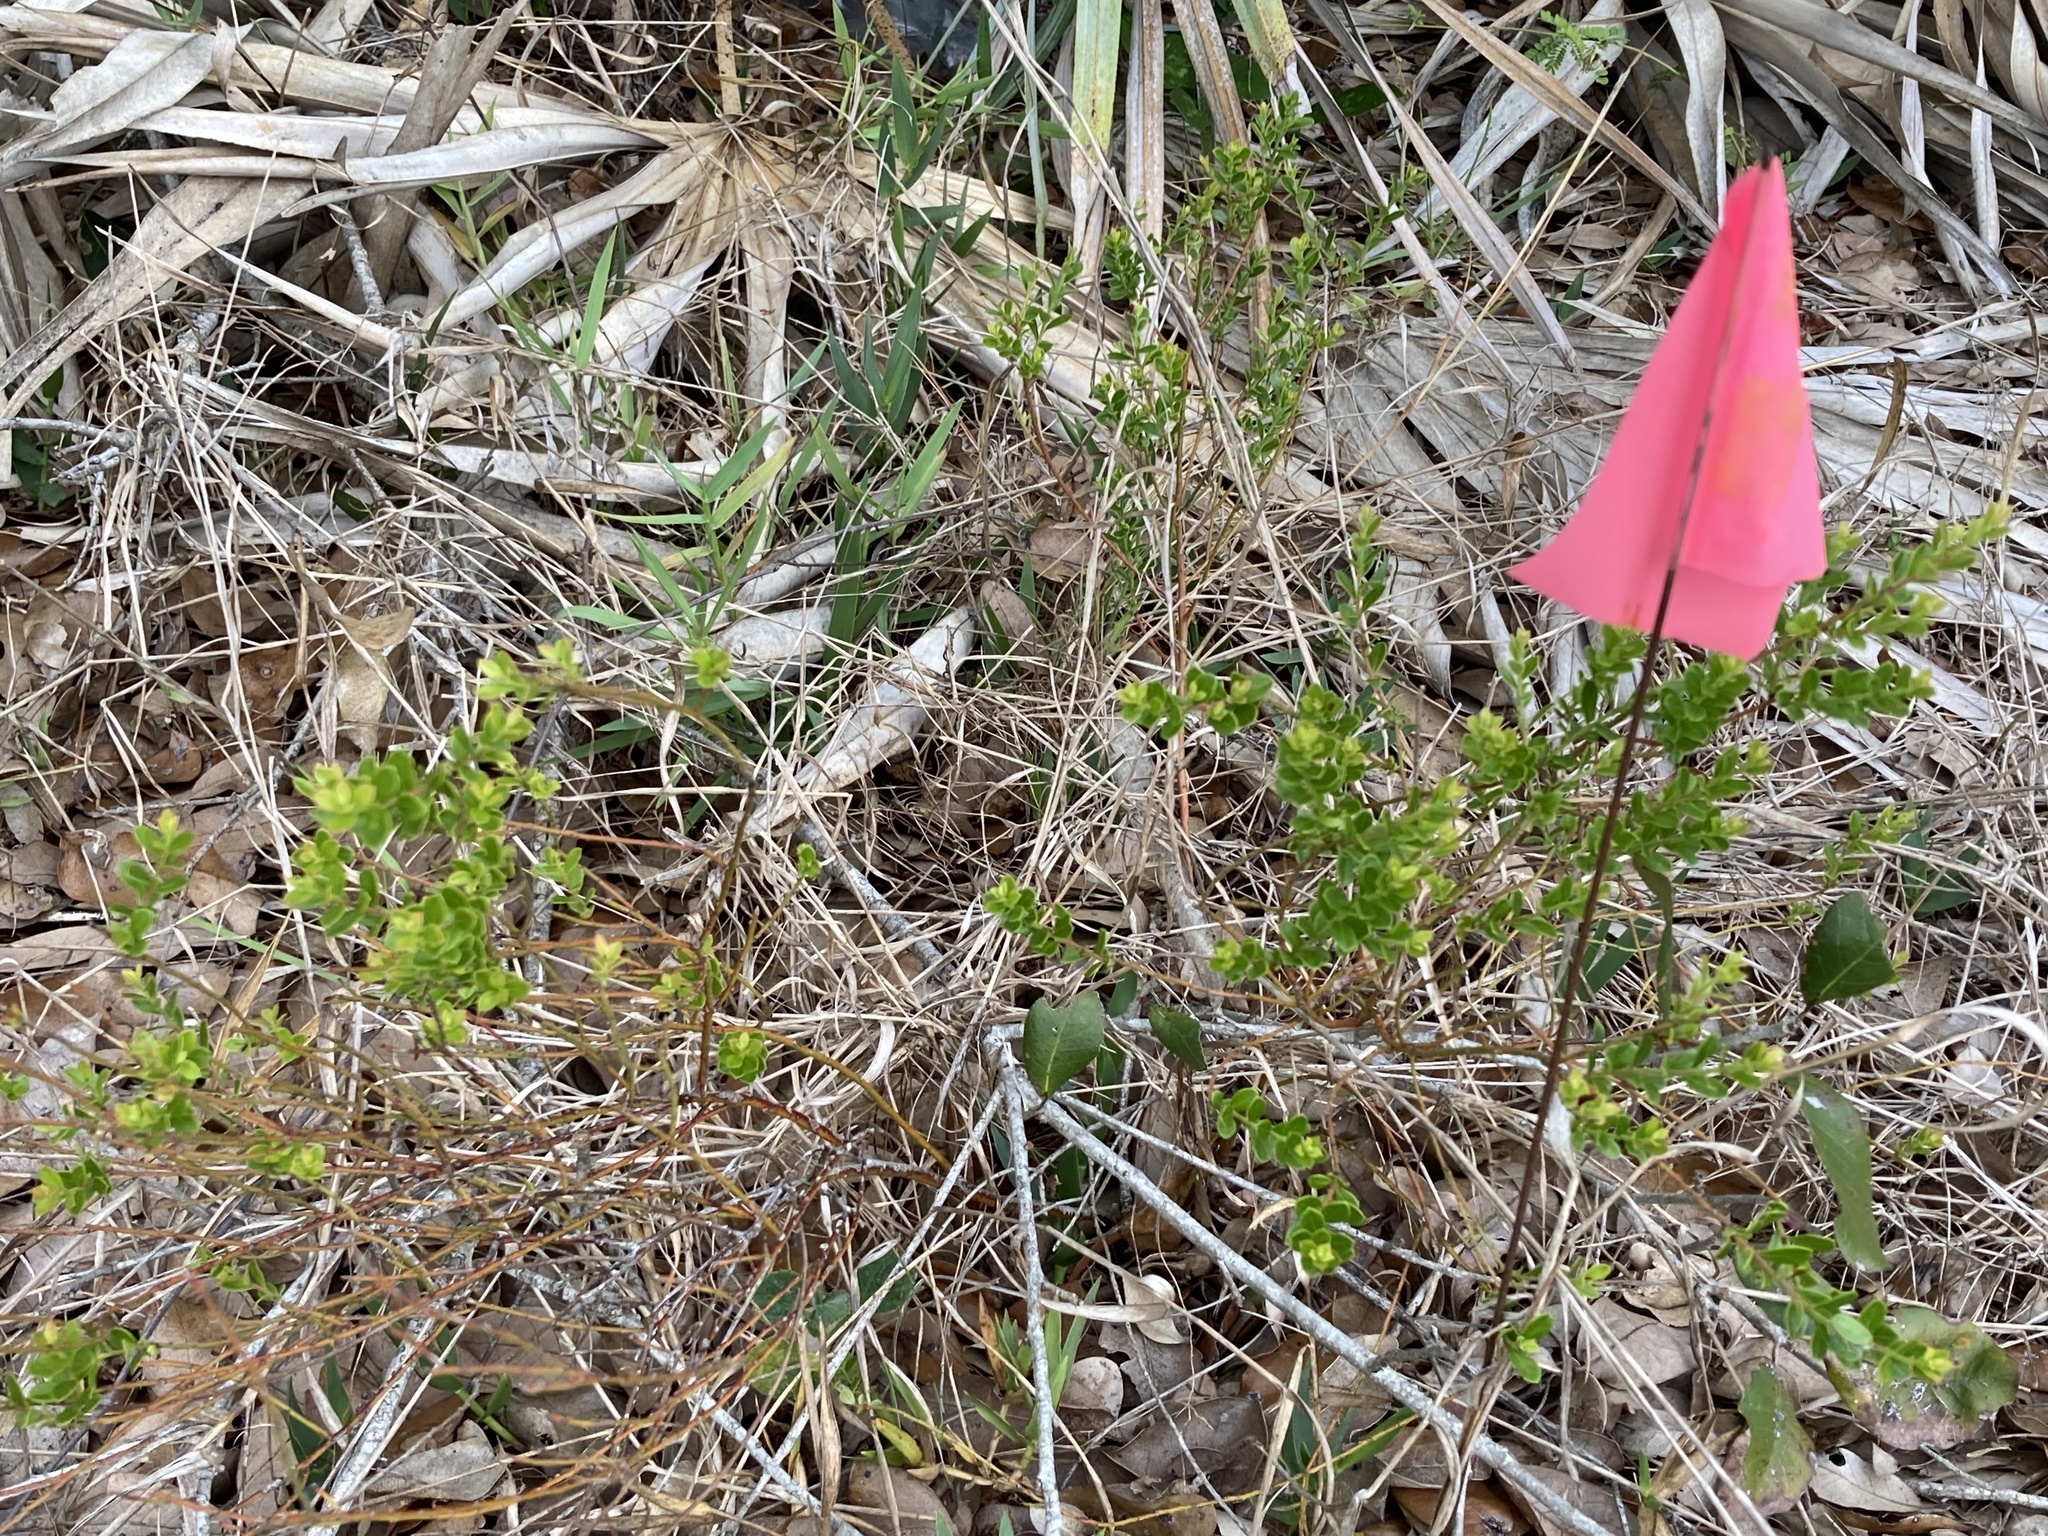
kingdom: Plantae
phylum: Tracheophyta
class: Magnoliopsida
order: Ericales
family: Ericaceae
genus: Vaccinium
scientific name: Vaccinium myrsinites
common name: Evergreen blueberry
